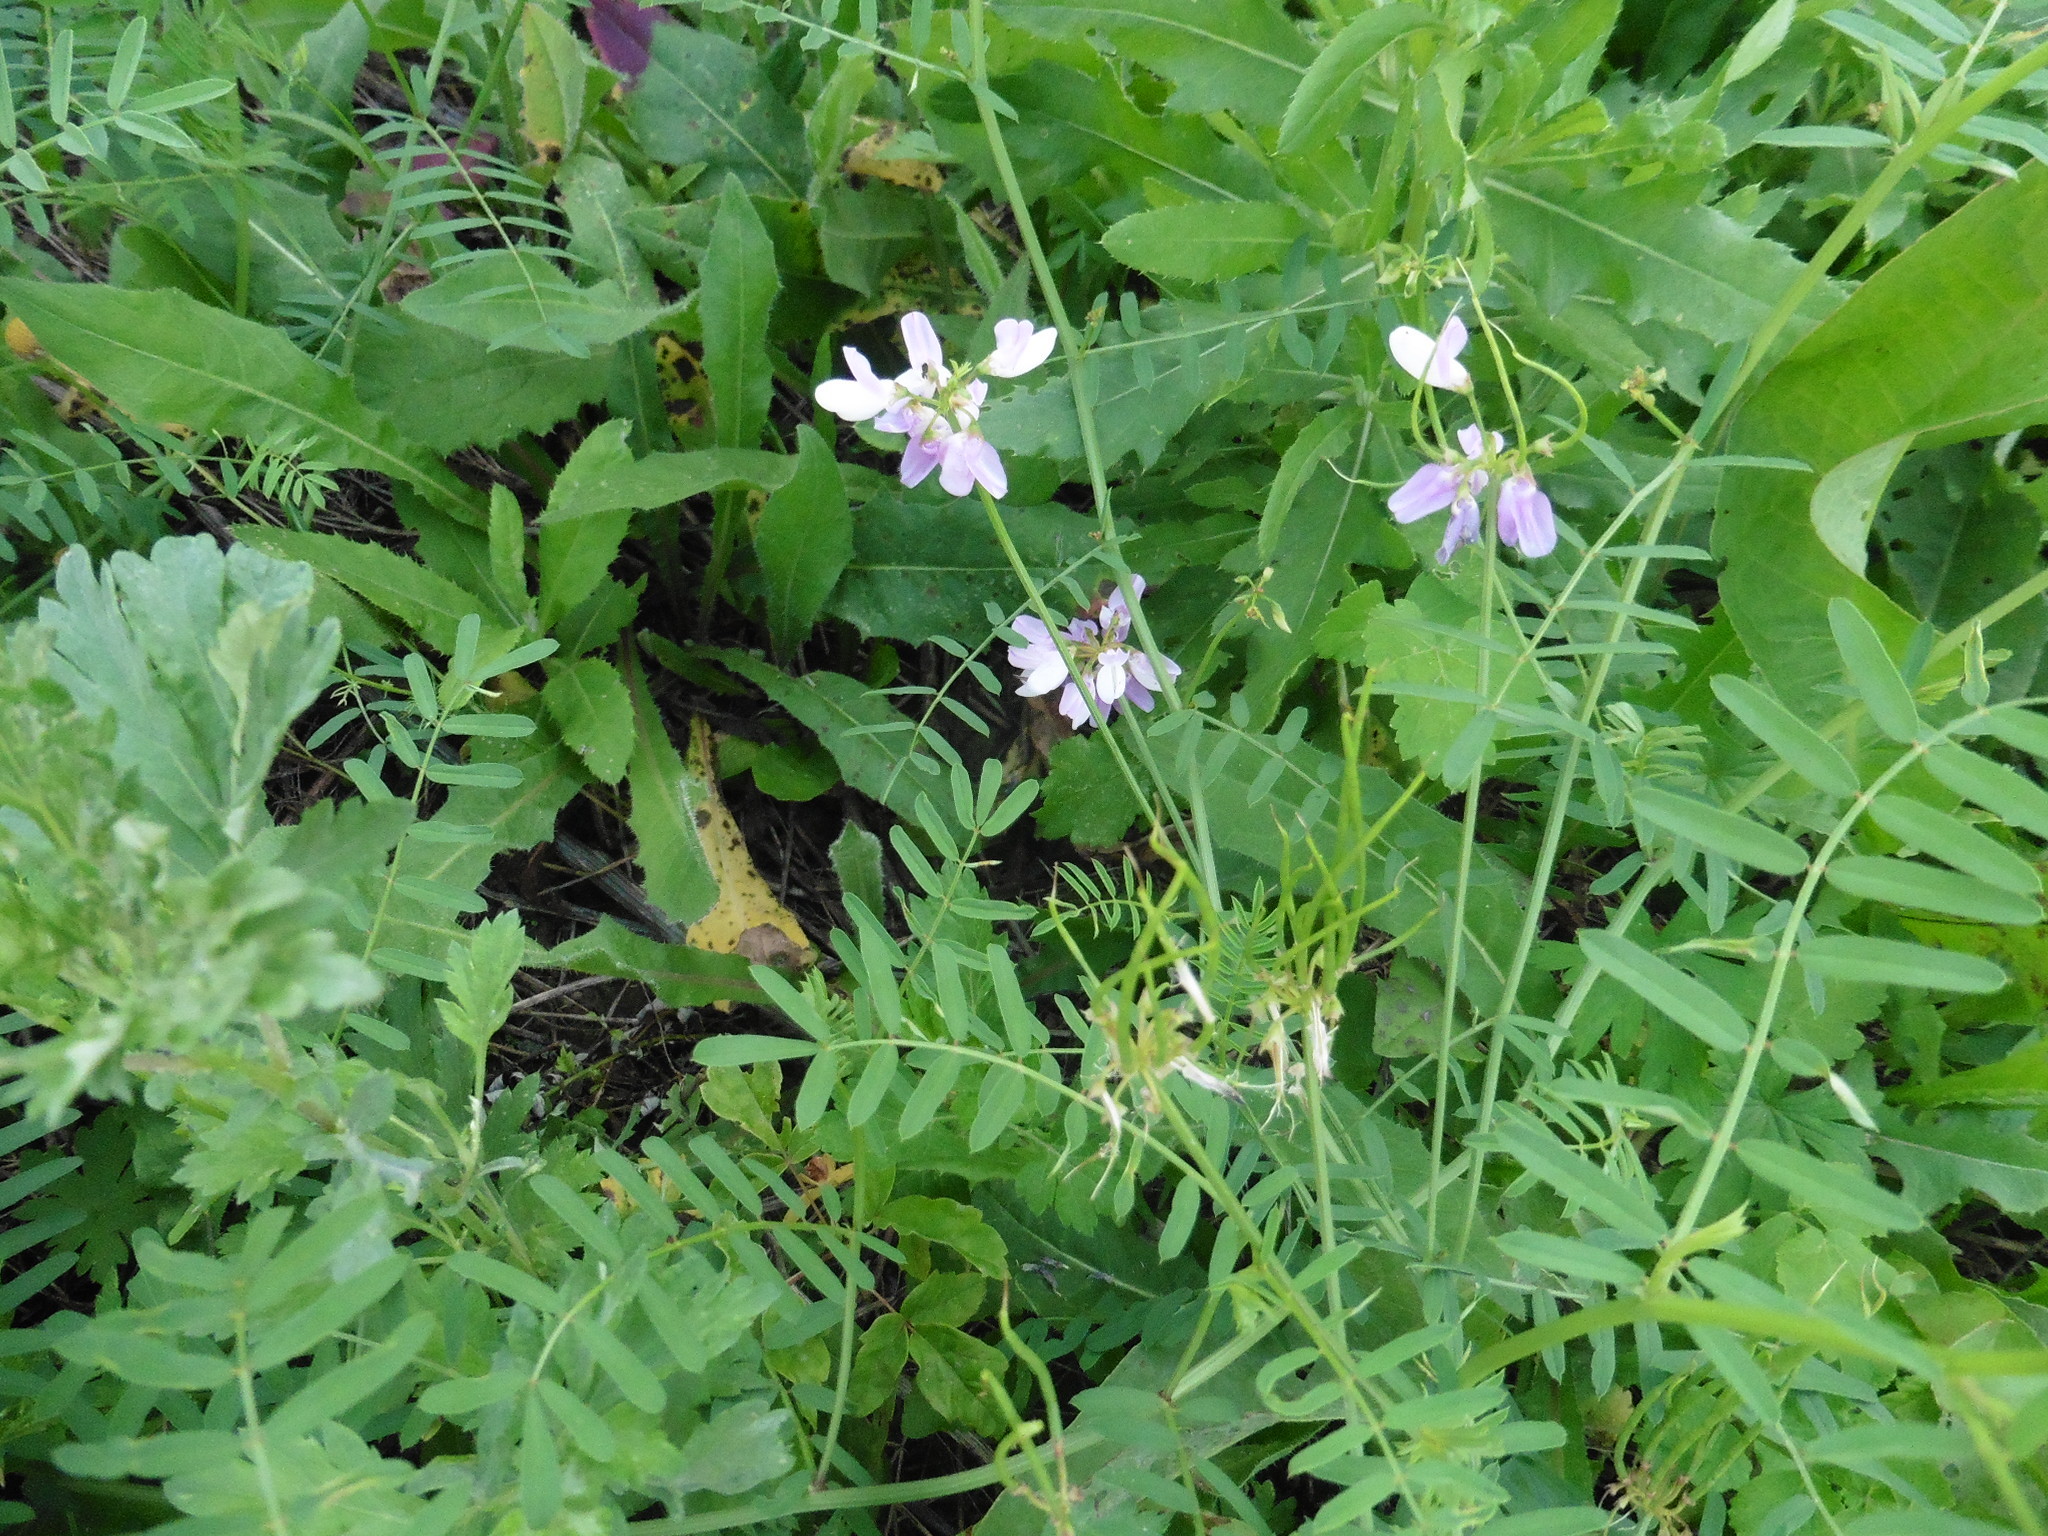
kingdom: Plantae
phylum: Tracheophyta
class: Magnoliopsida
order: Fabales
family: Fabaceae
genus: Coronilla
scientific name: Coronilla varia
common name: Crownvetch
